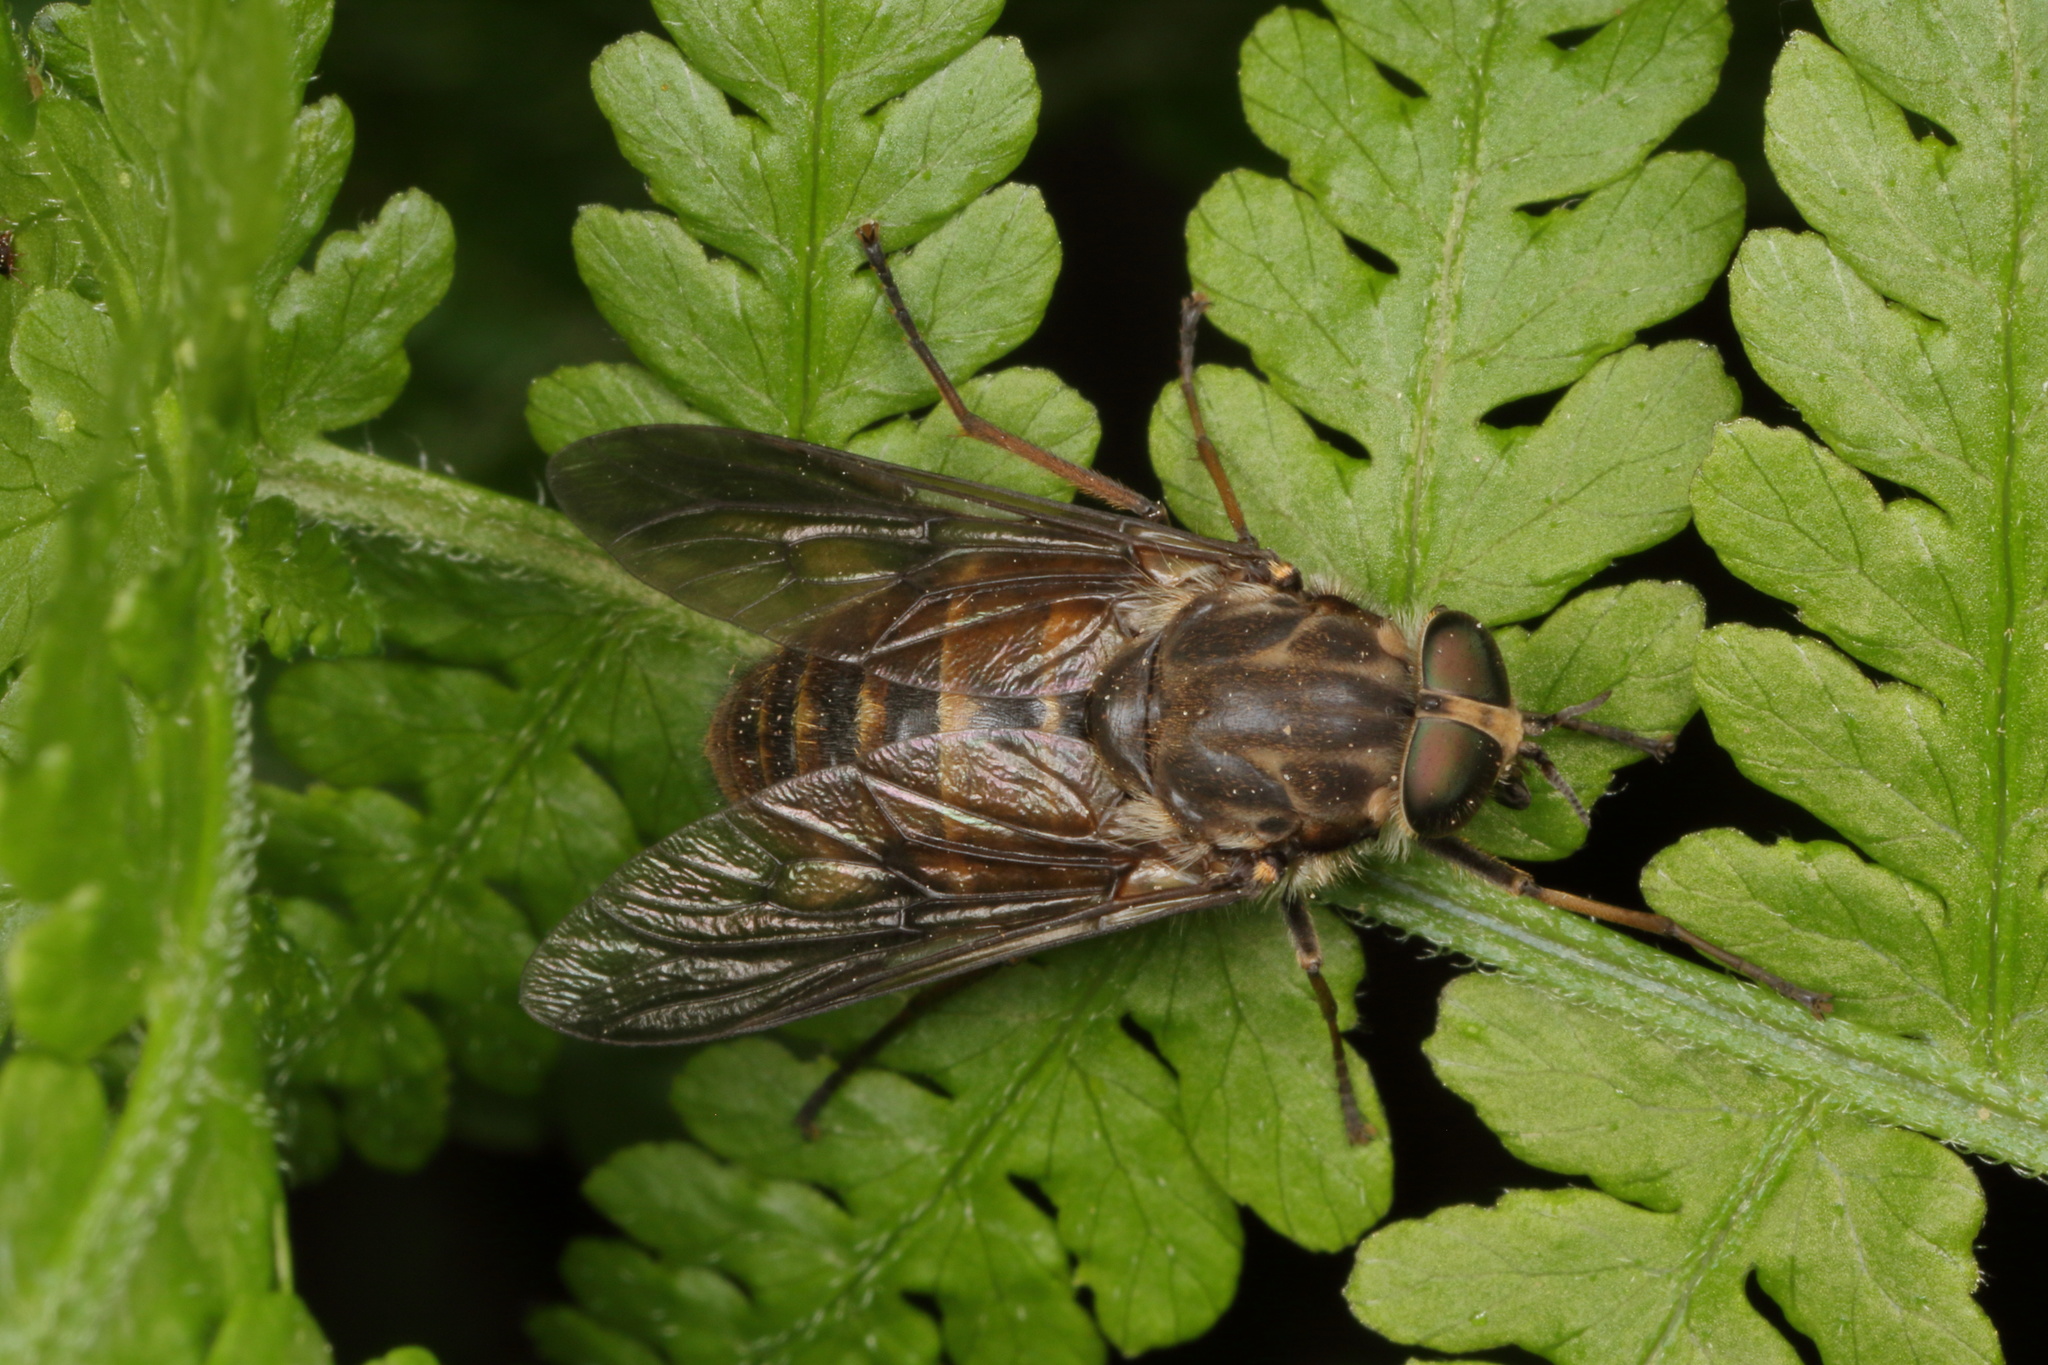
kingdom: Animalia
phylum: Arthropoda
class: Insecta
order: Diptera
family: Tabanidae
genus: Scaptia
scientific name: Scaptia
